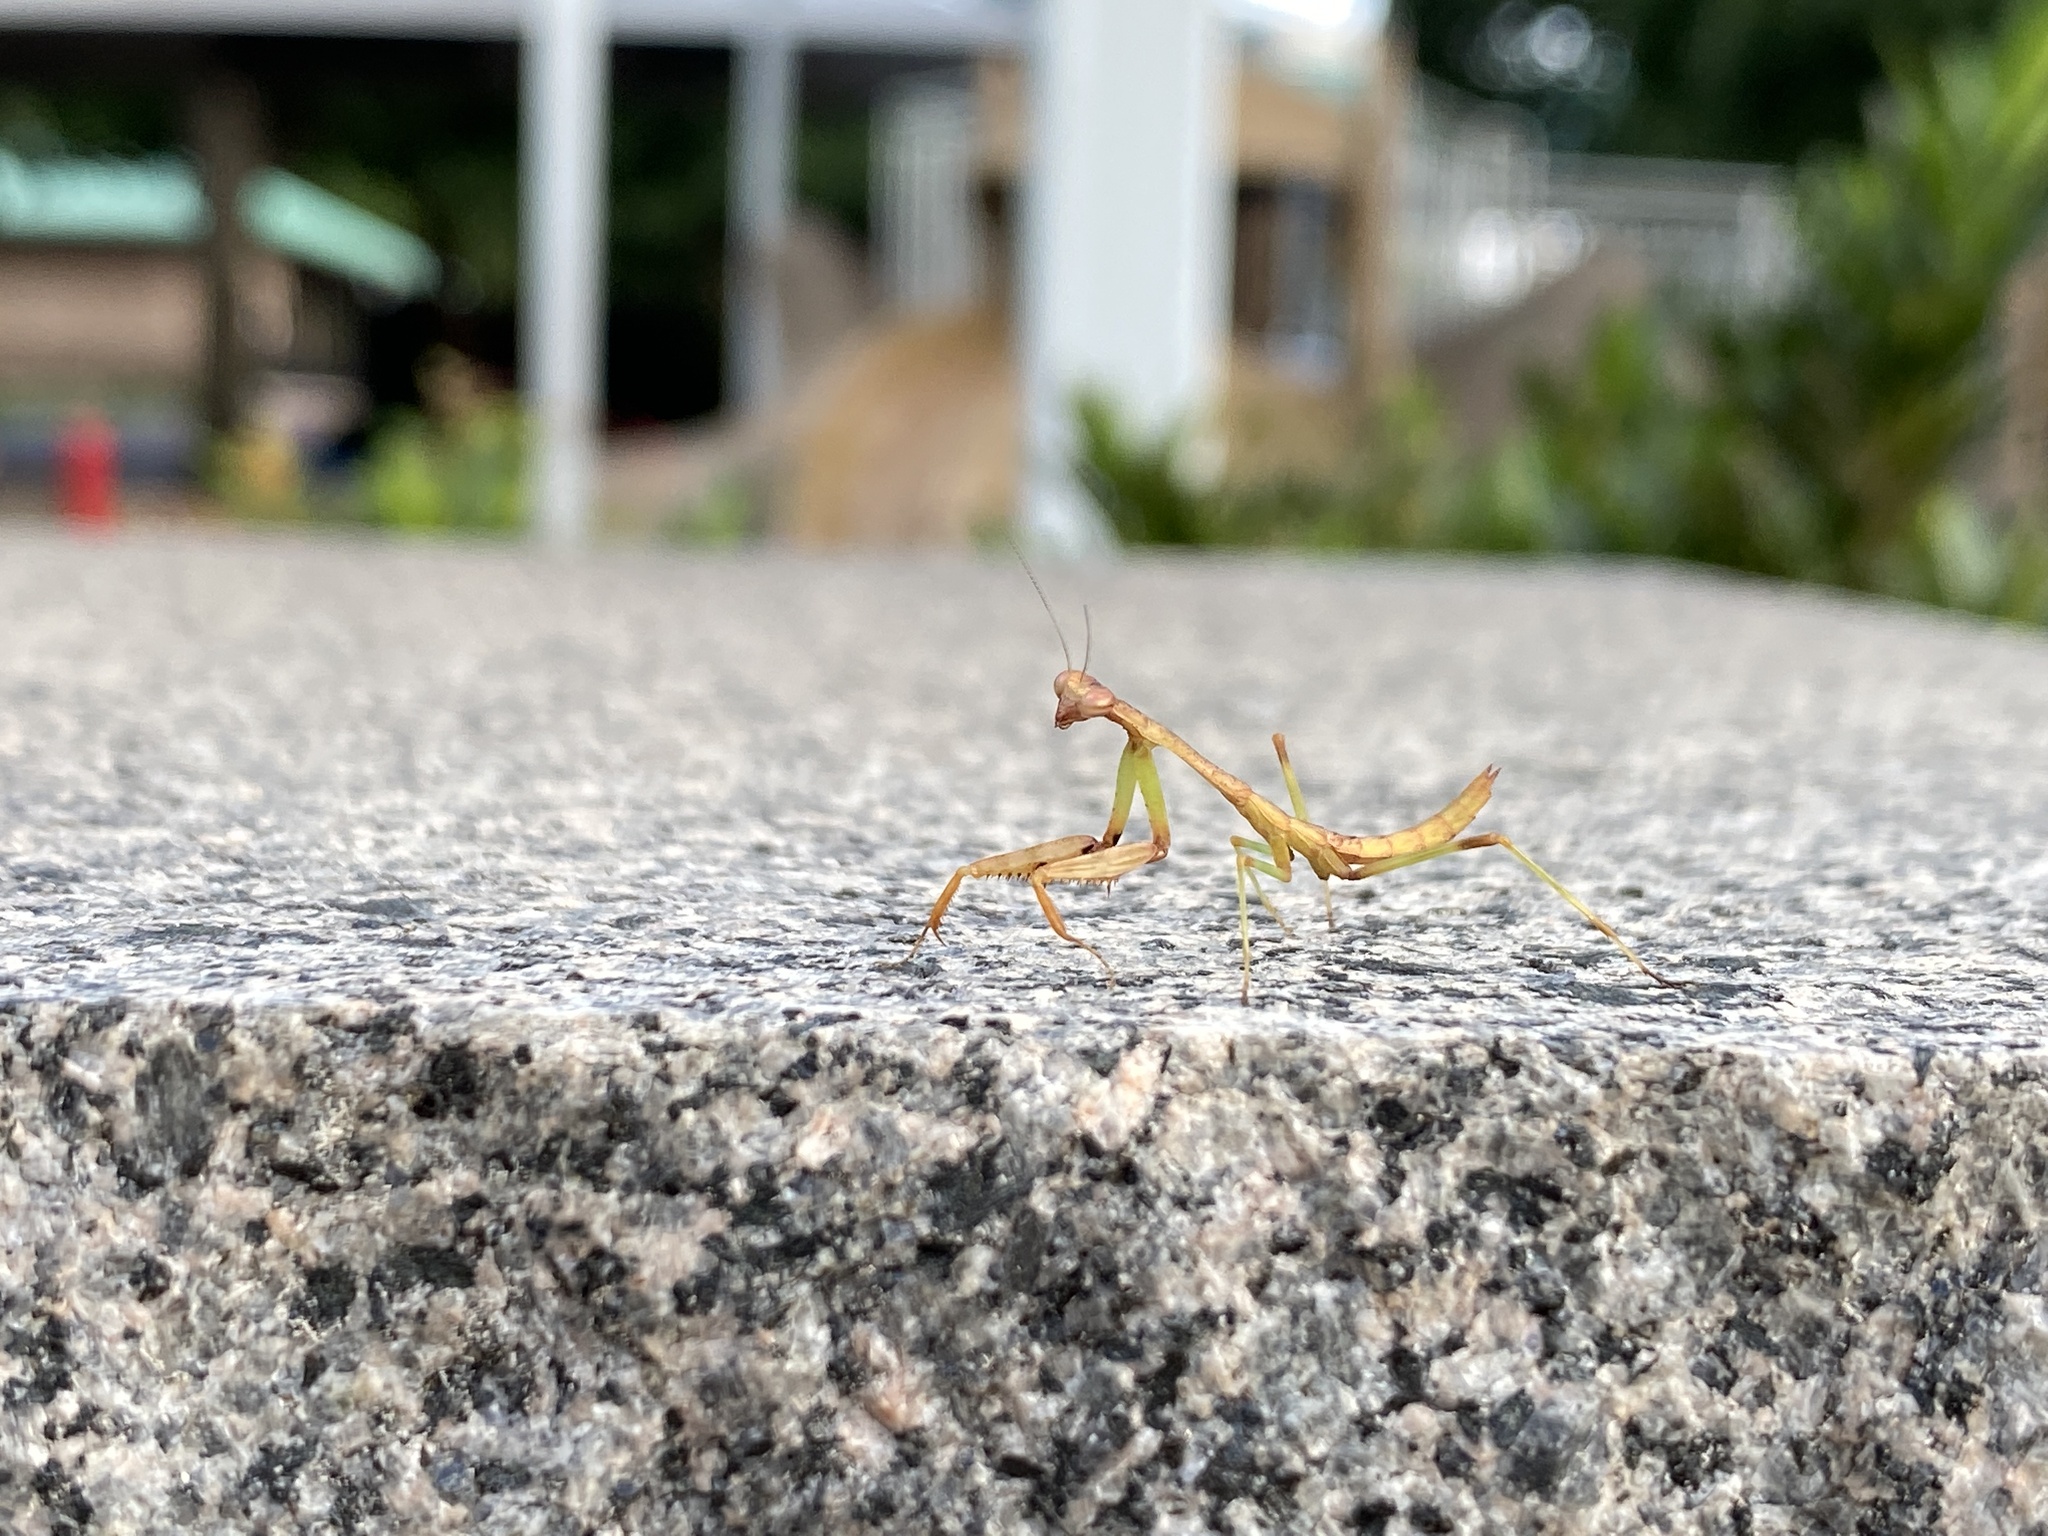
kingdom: Animalia
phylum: Arthropoda
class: Insecta
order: Mantodea
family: Mantidae
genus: Stagmomantis
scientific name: Stagmomantis carolina
